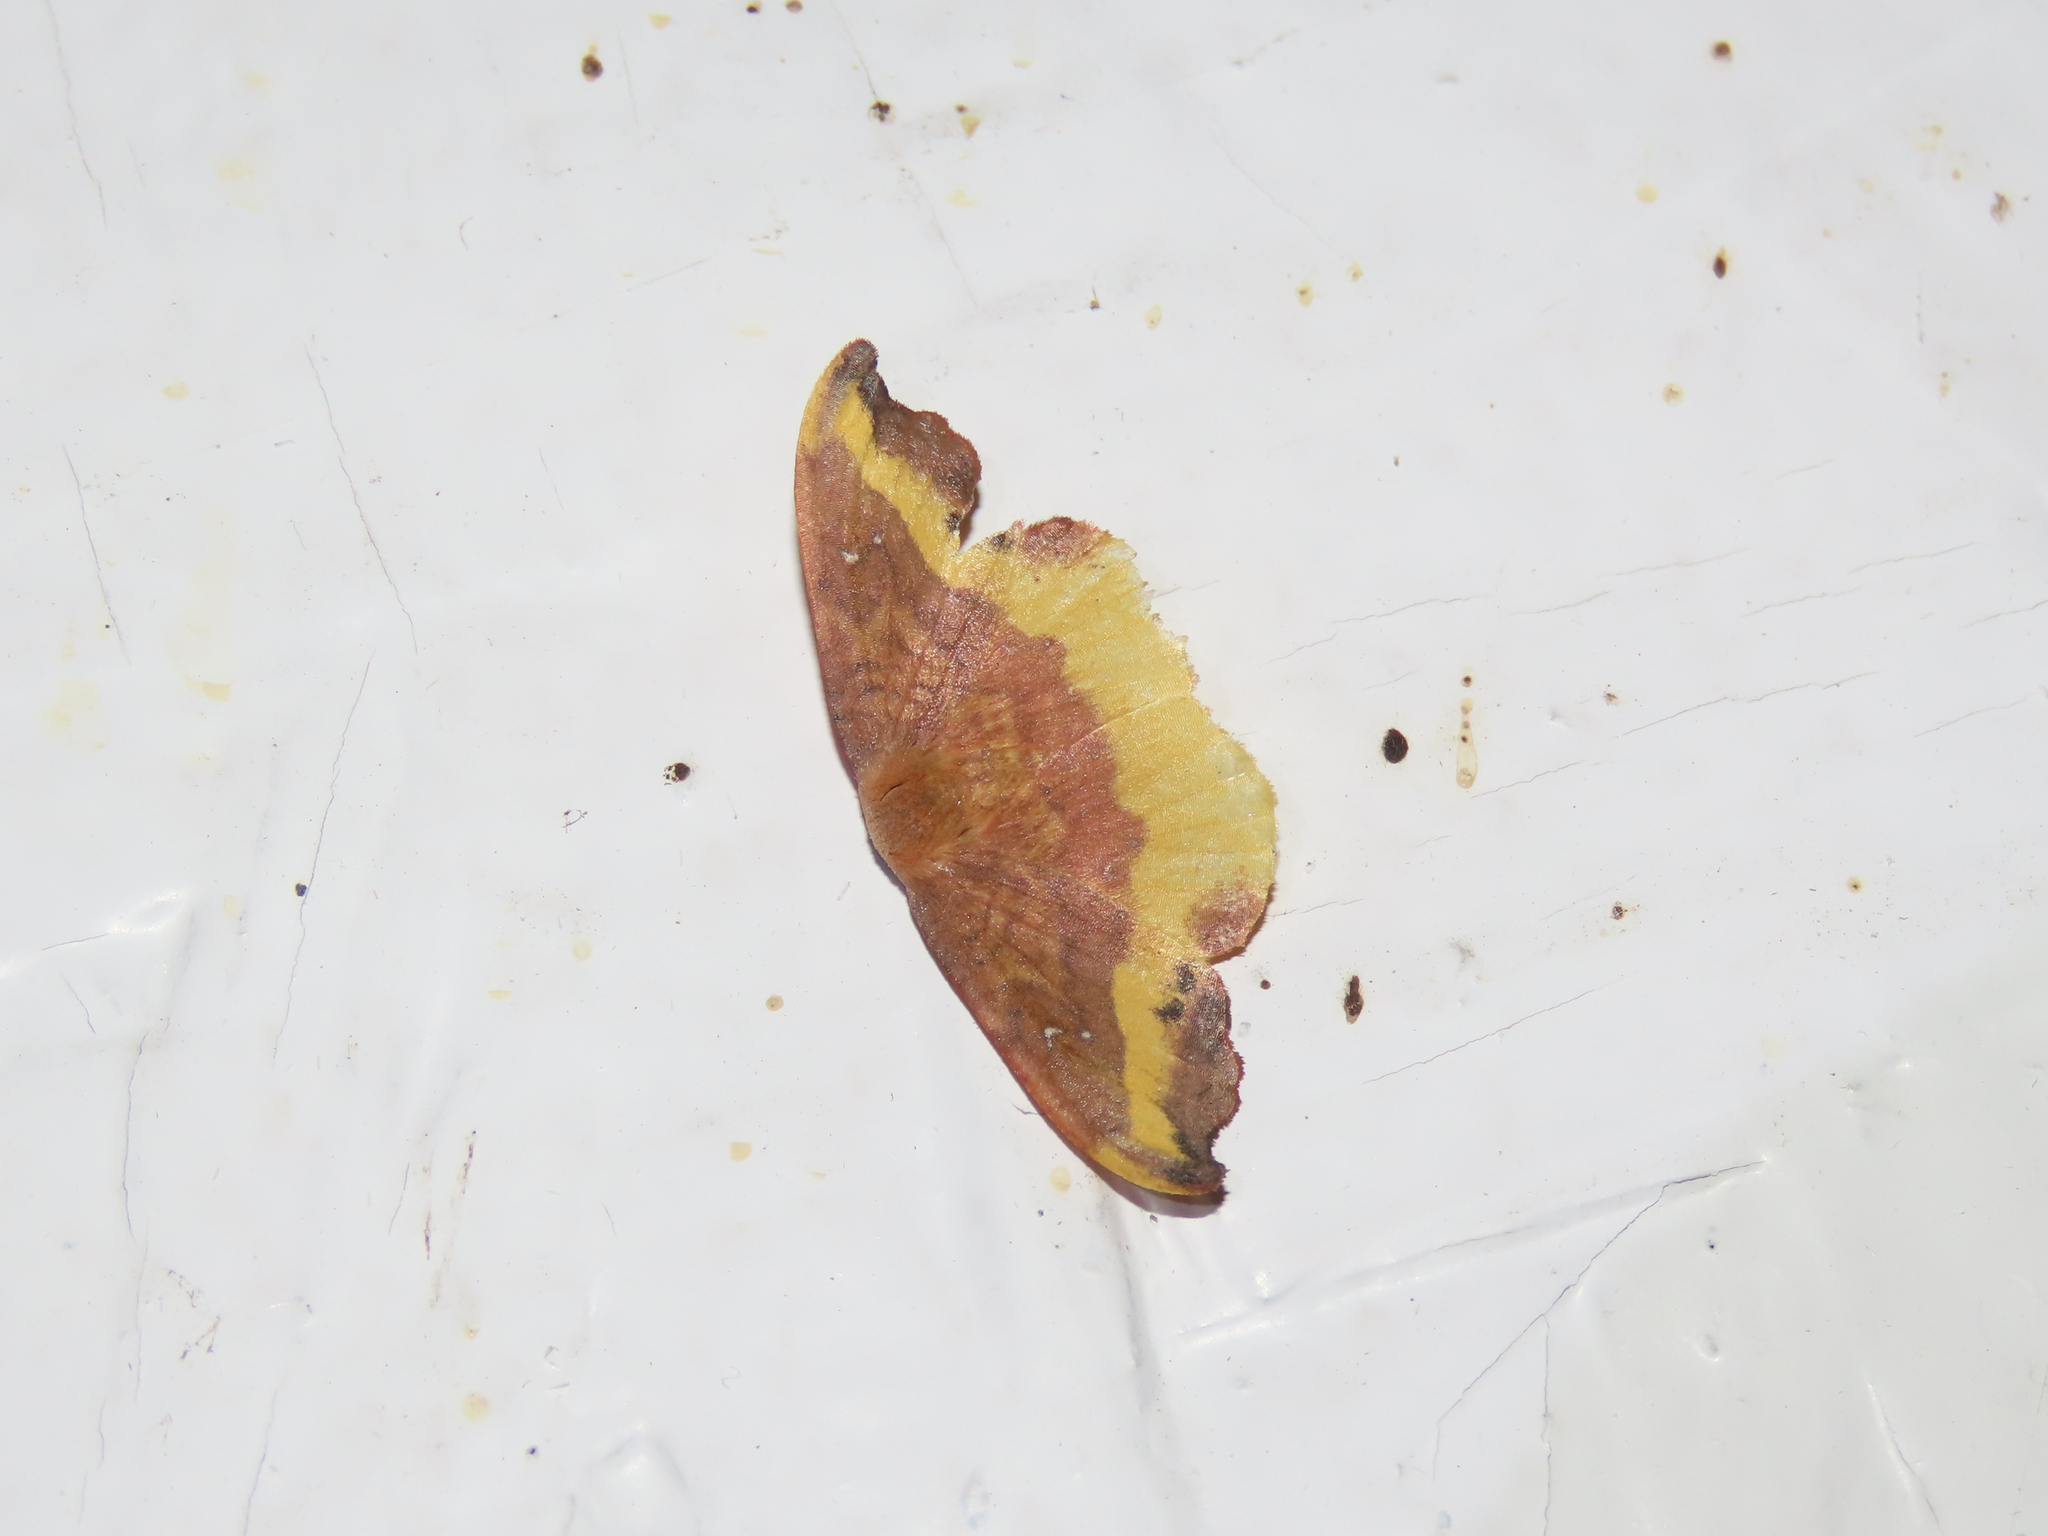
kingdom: Animalia
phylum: Arthropoda
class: Insecta
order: Lepidoptera
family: Drepanidae
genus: Oreta
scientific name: Oreta rosea
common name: Rose hooktip
